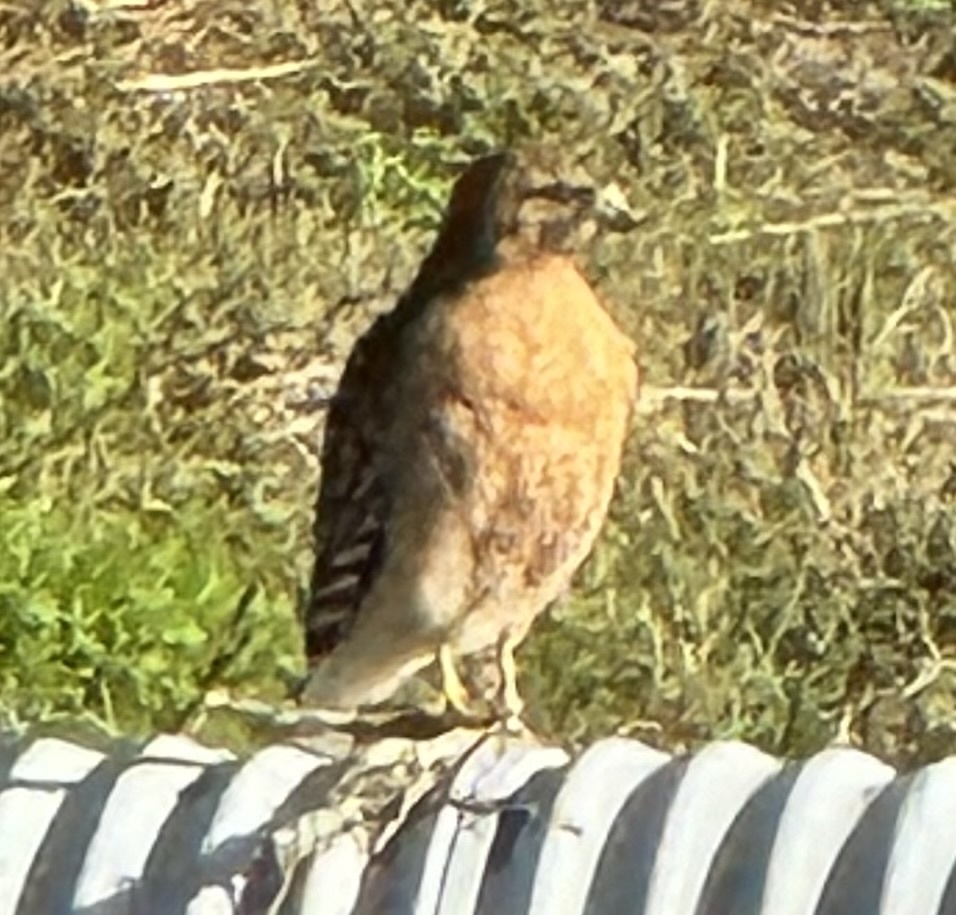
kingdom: Animalia
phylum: Chordata
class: Aves
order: Accipitriformes
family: Accipitridae
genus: Buteo
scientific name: Buteo lineatus
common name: Red-shouldered hawk
